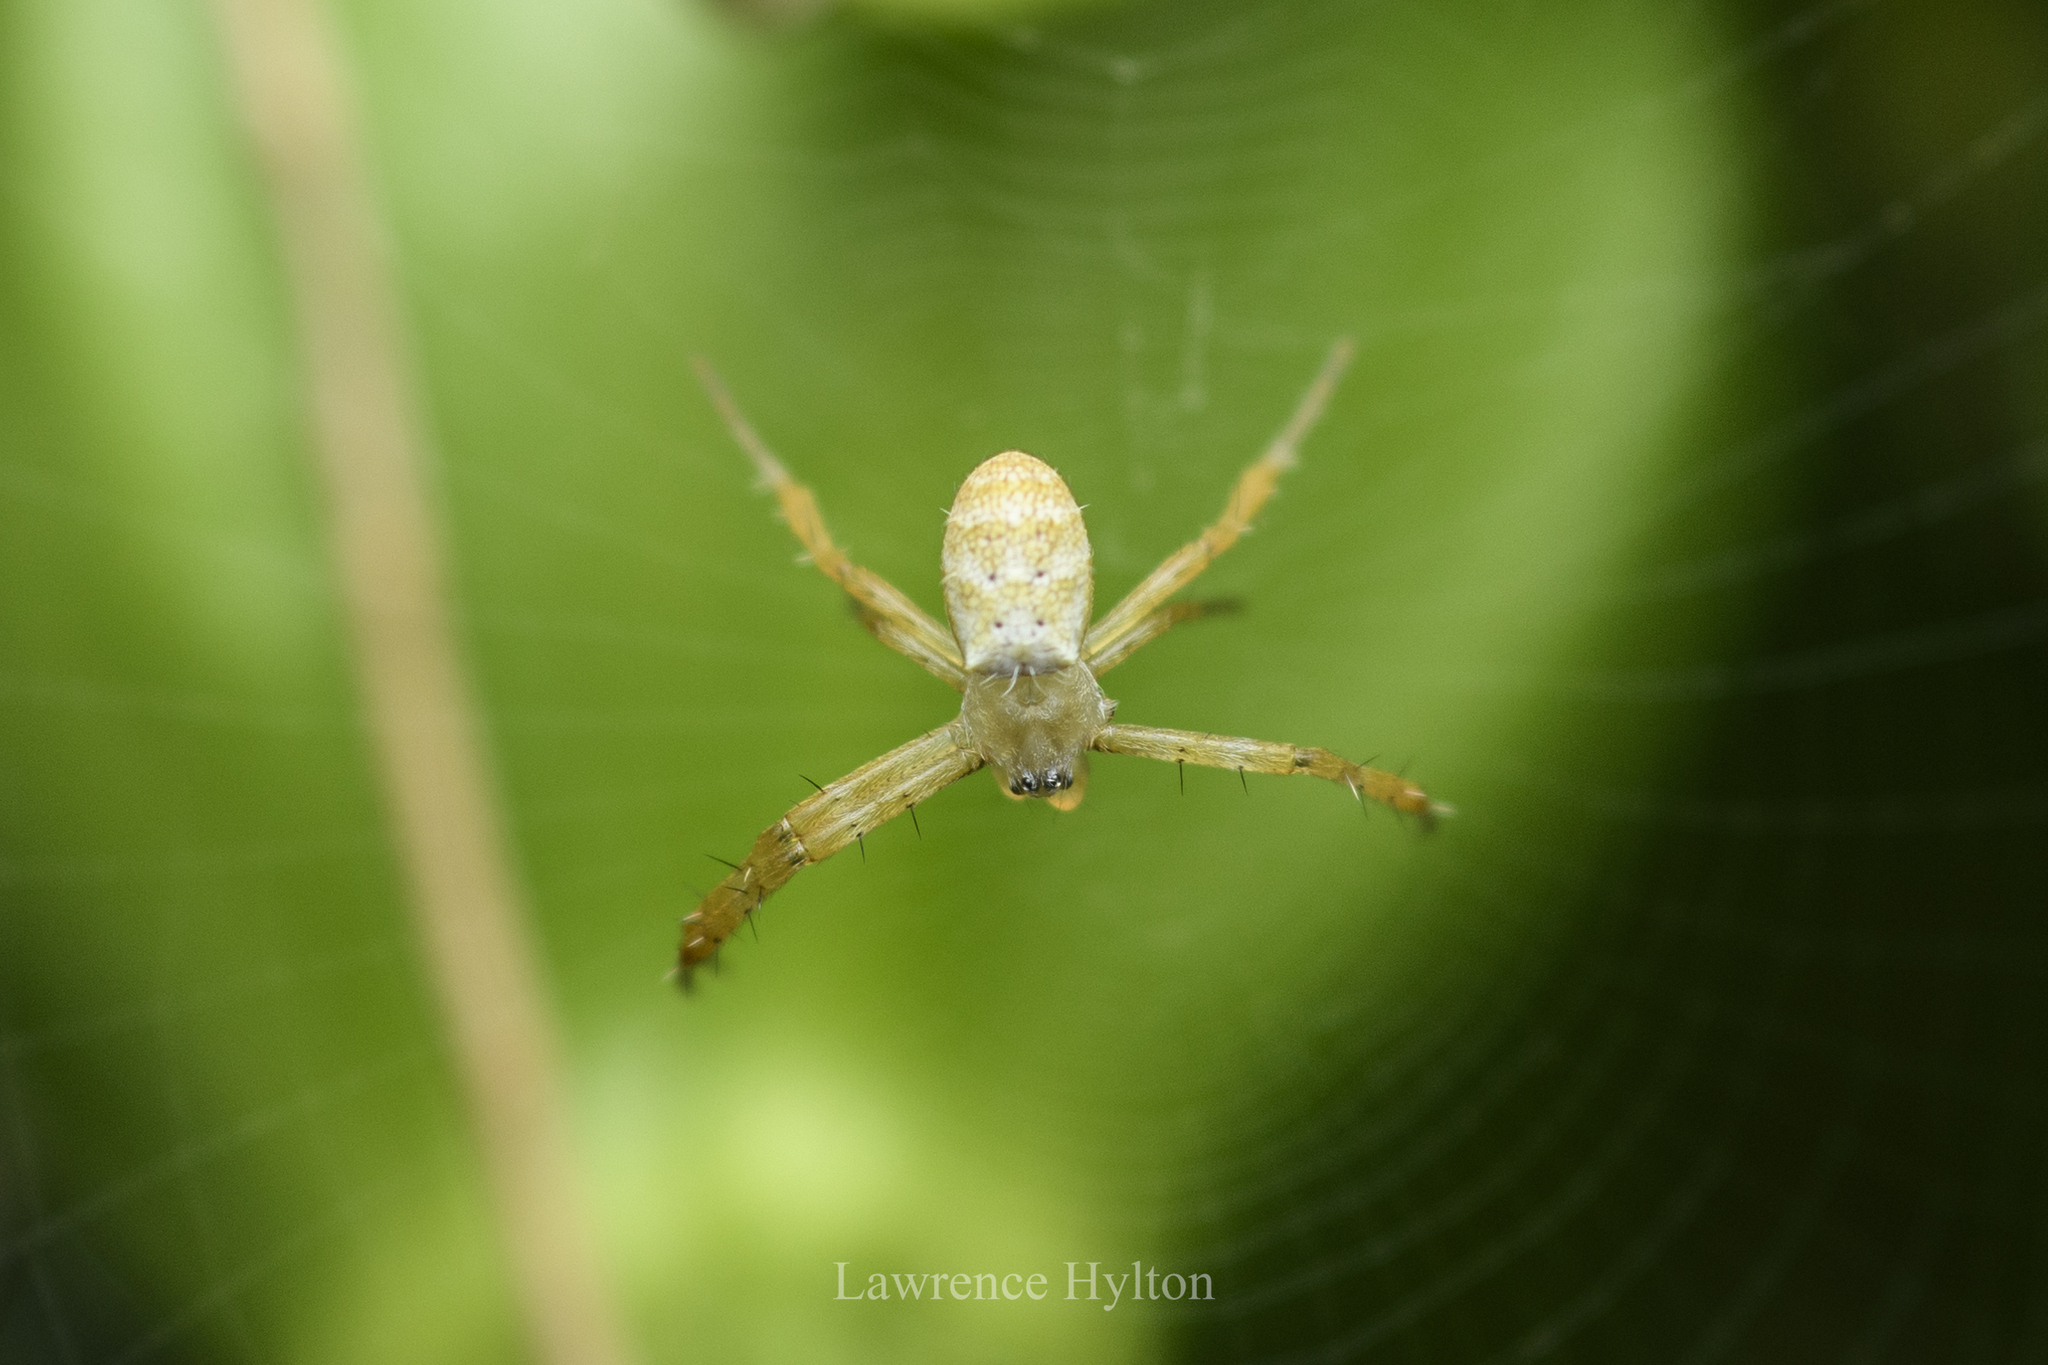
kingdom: Animalia
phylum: Arthropoda
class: Arachnida
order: Araneae
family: Araneidae
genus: Argiope
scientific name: Argiope
